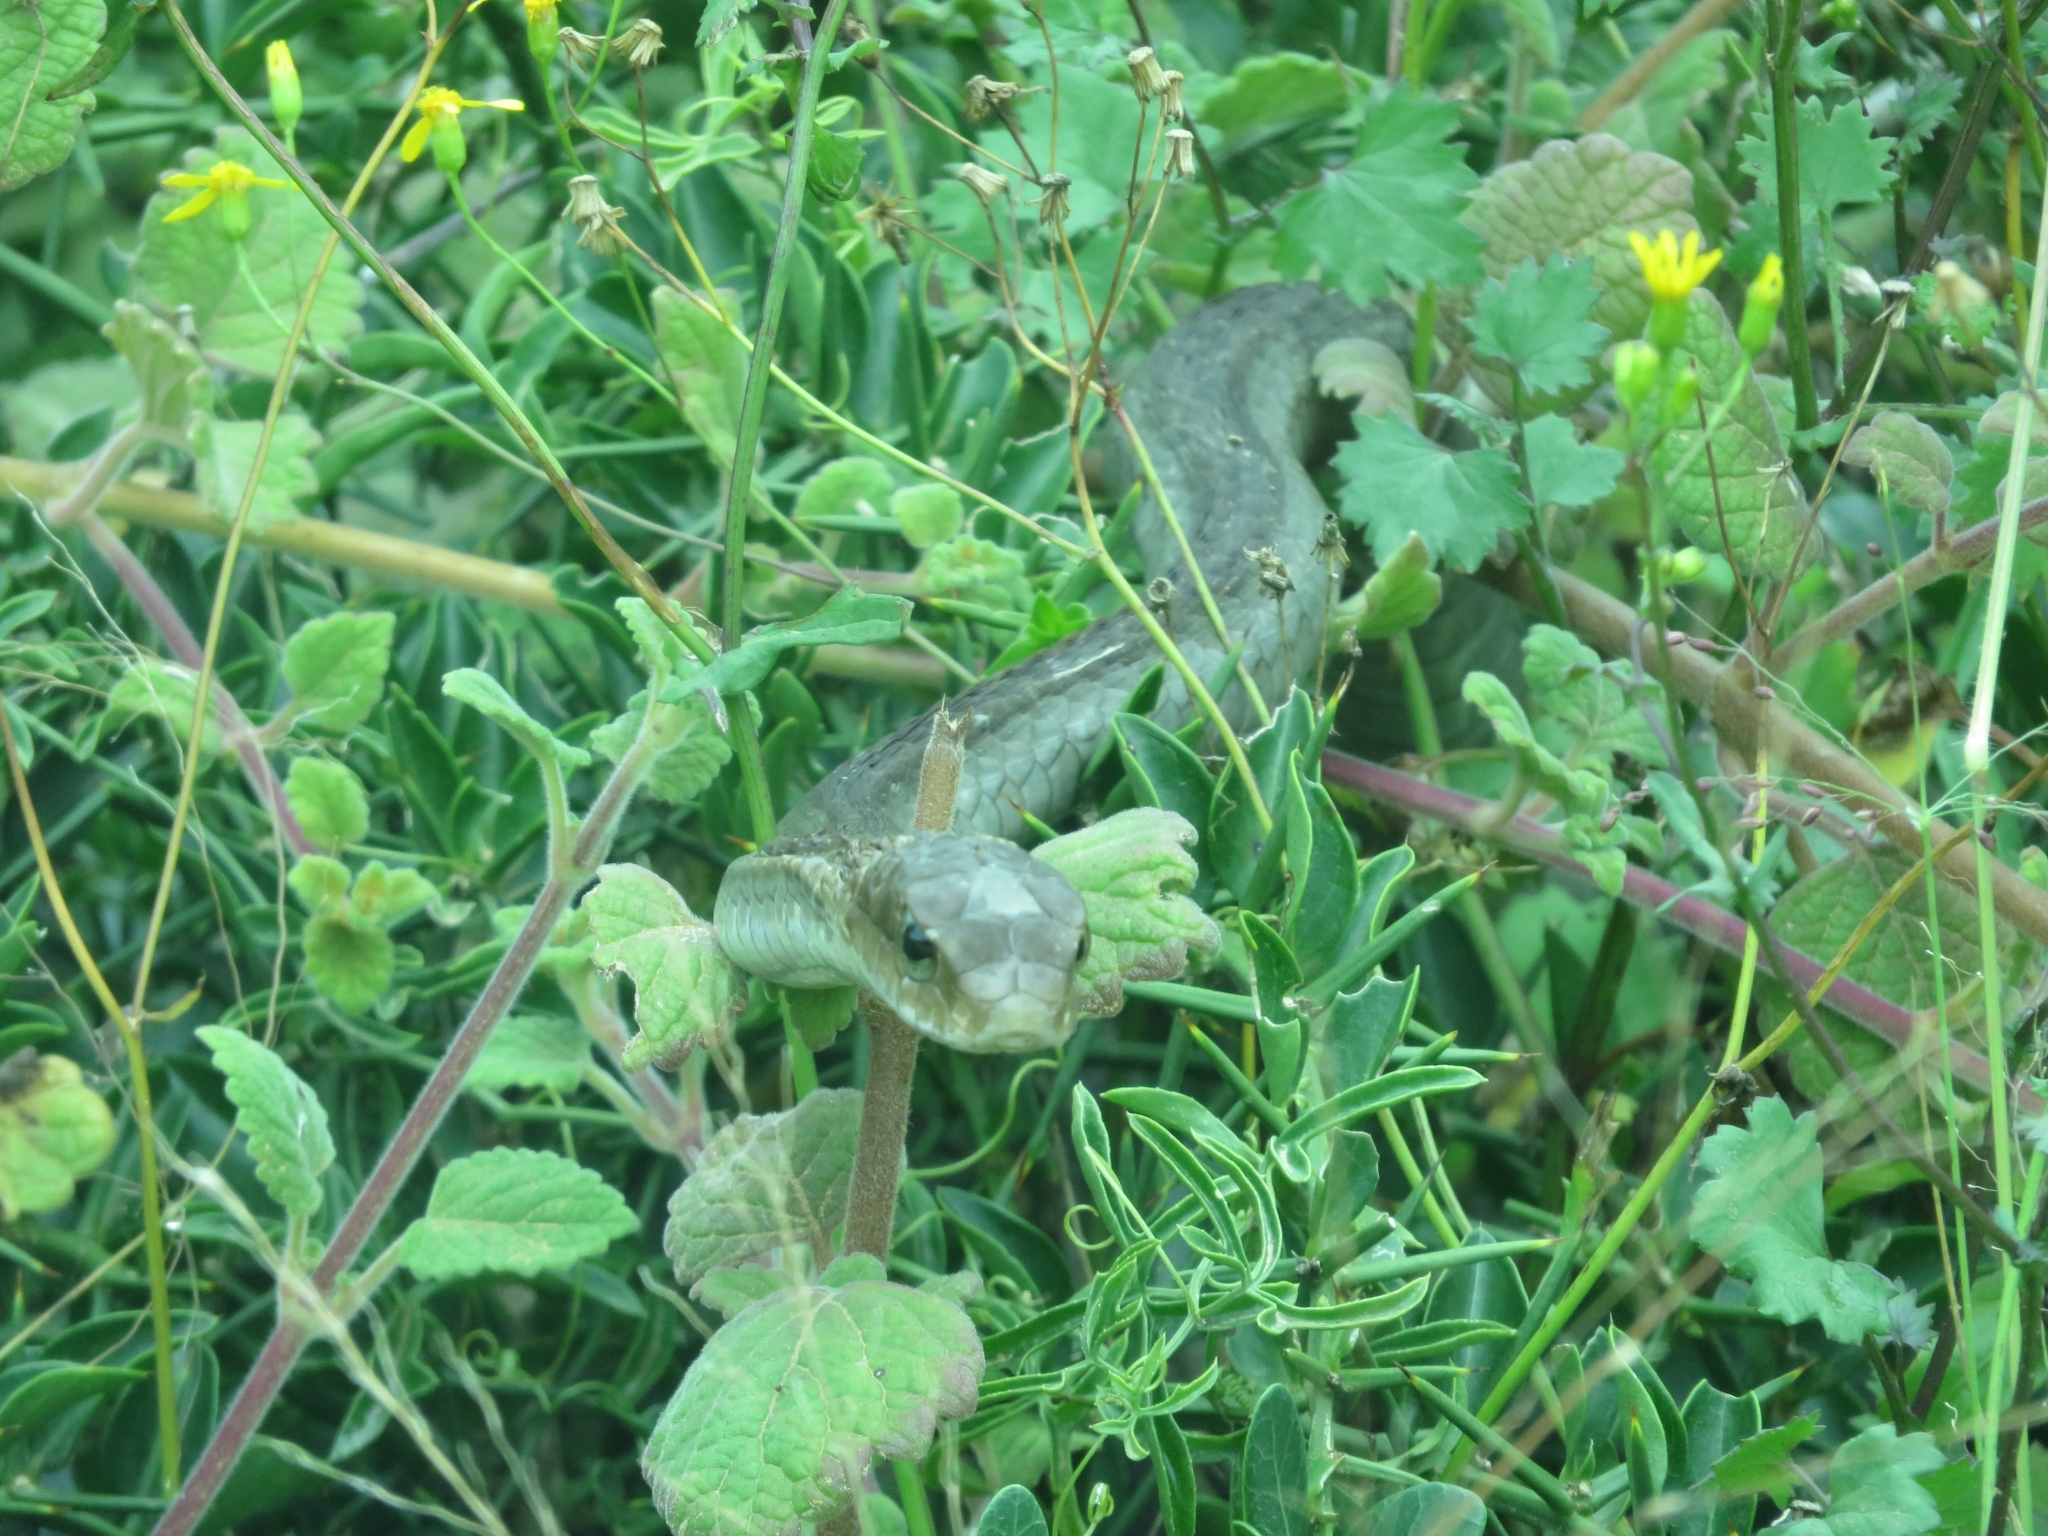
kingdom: Animalia
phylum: Chordata
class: Squamata
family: Colubridae
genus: Dispholidus
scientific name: Dispholidus typus
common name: Boomslang
